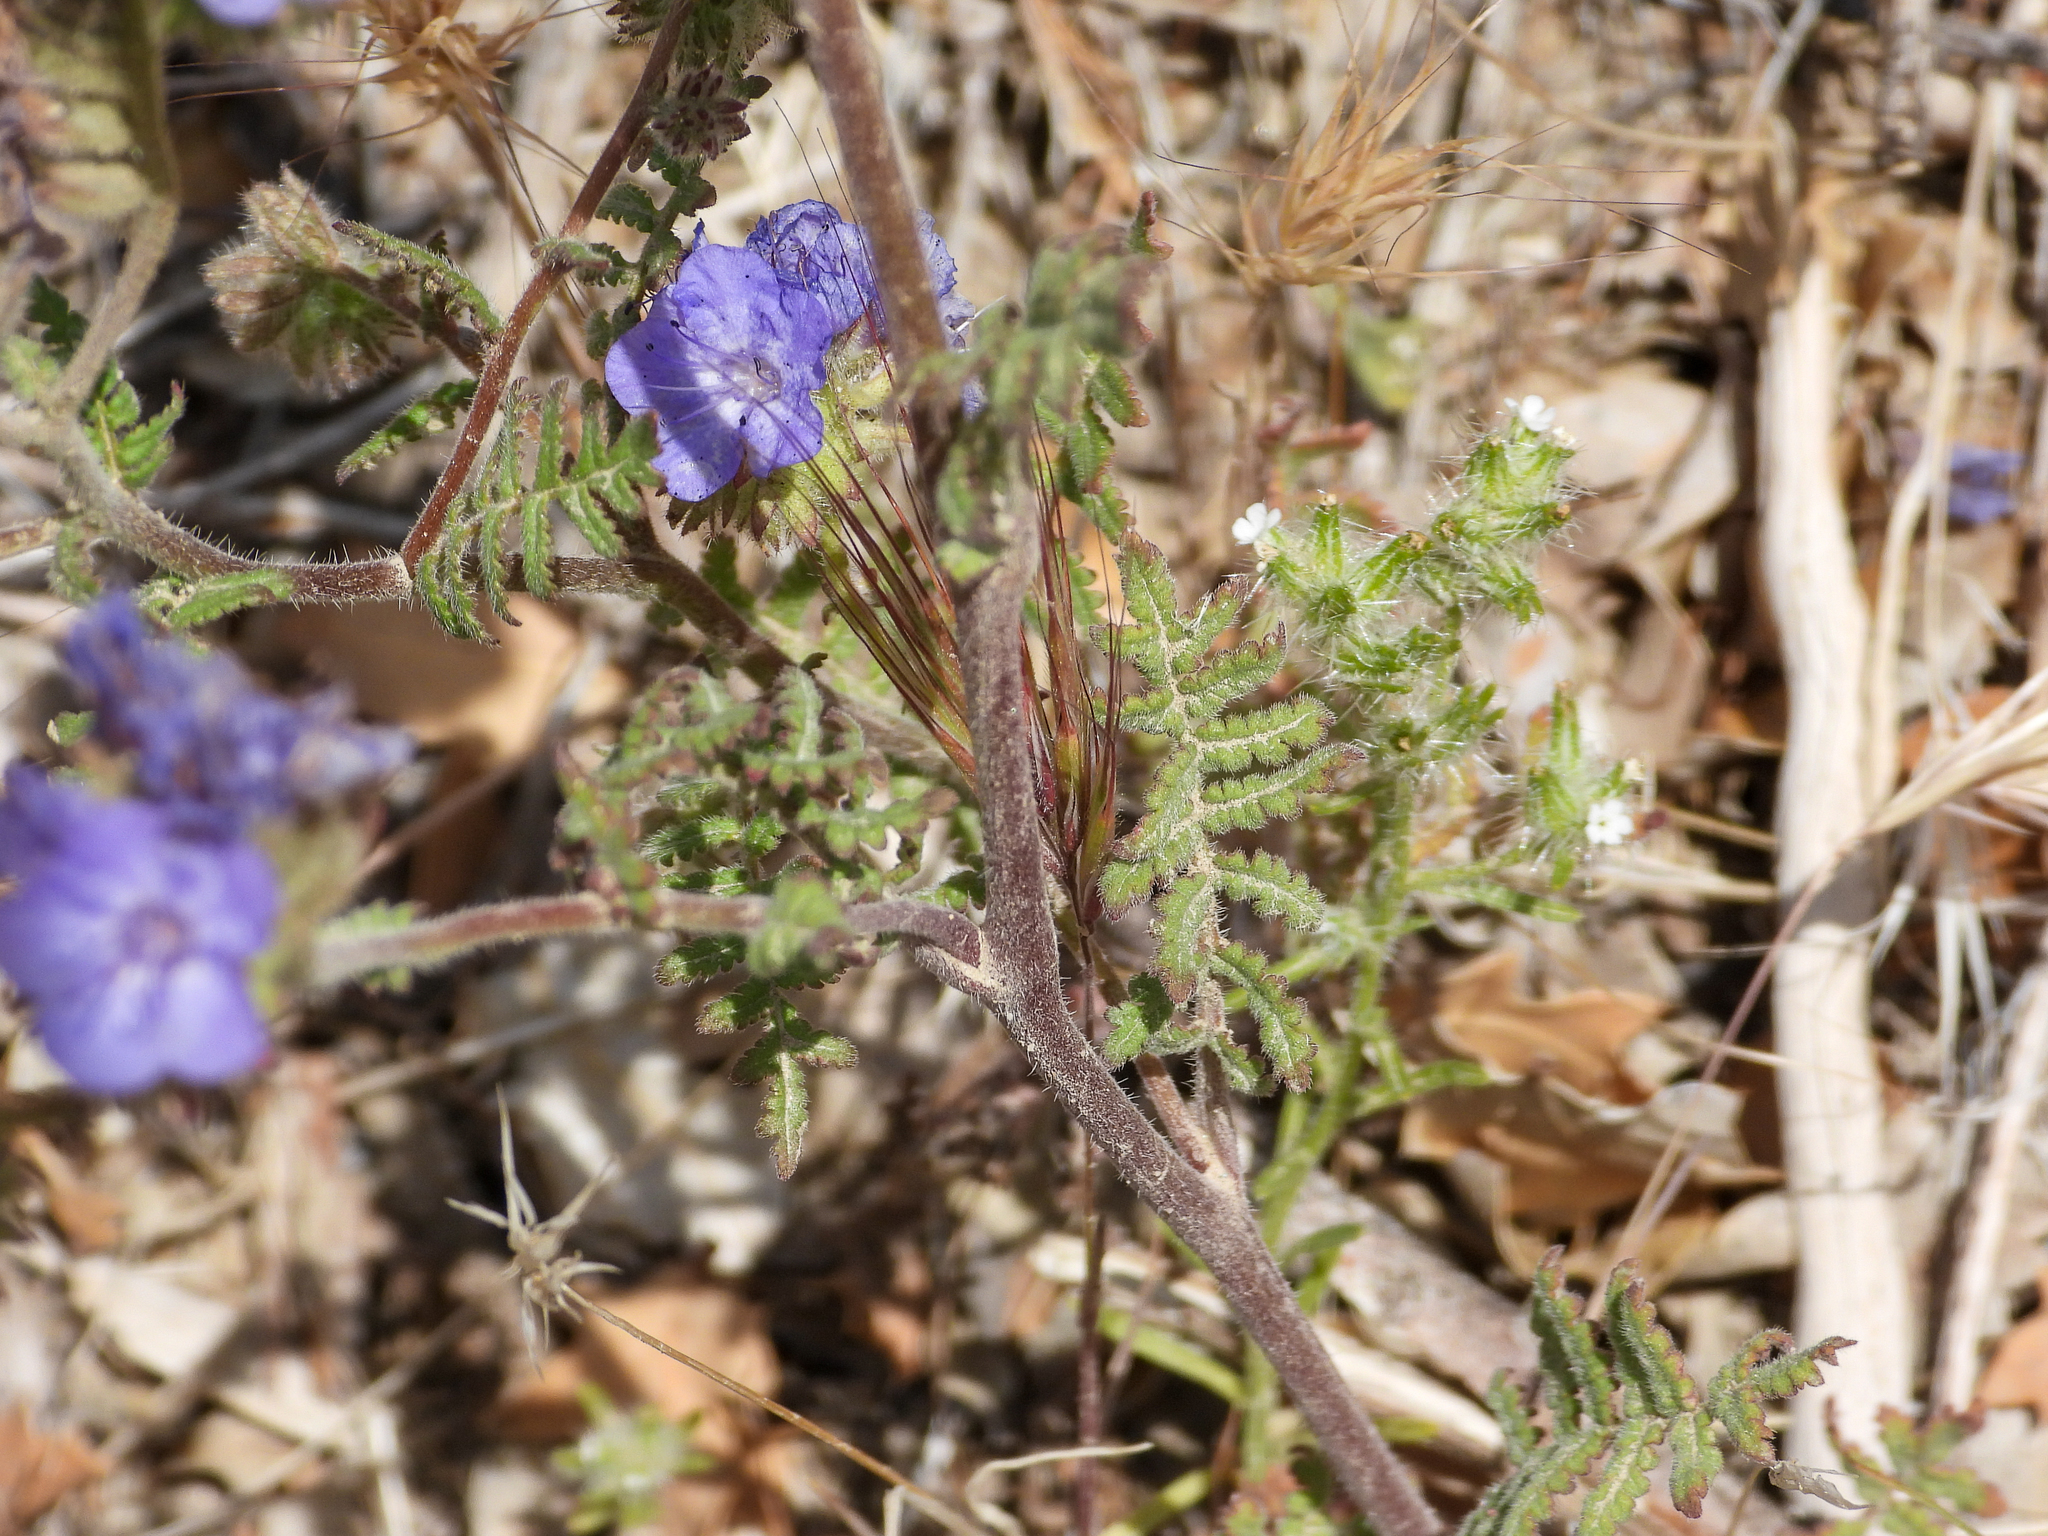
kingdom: Plantae
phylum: Tracheophyta
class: Magnoliopsida
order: Boraginales
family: Hydrophyllaceae
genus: Phacelia
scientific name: Phacelia distans
